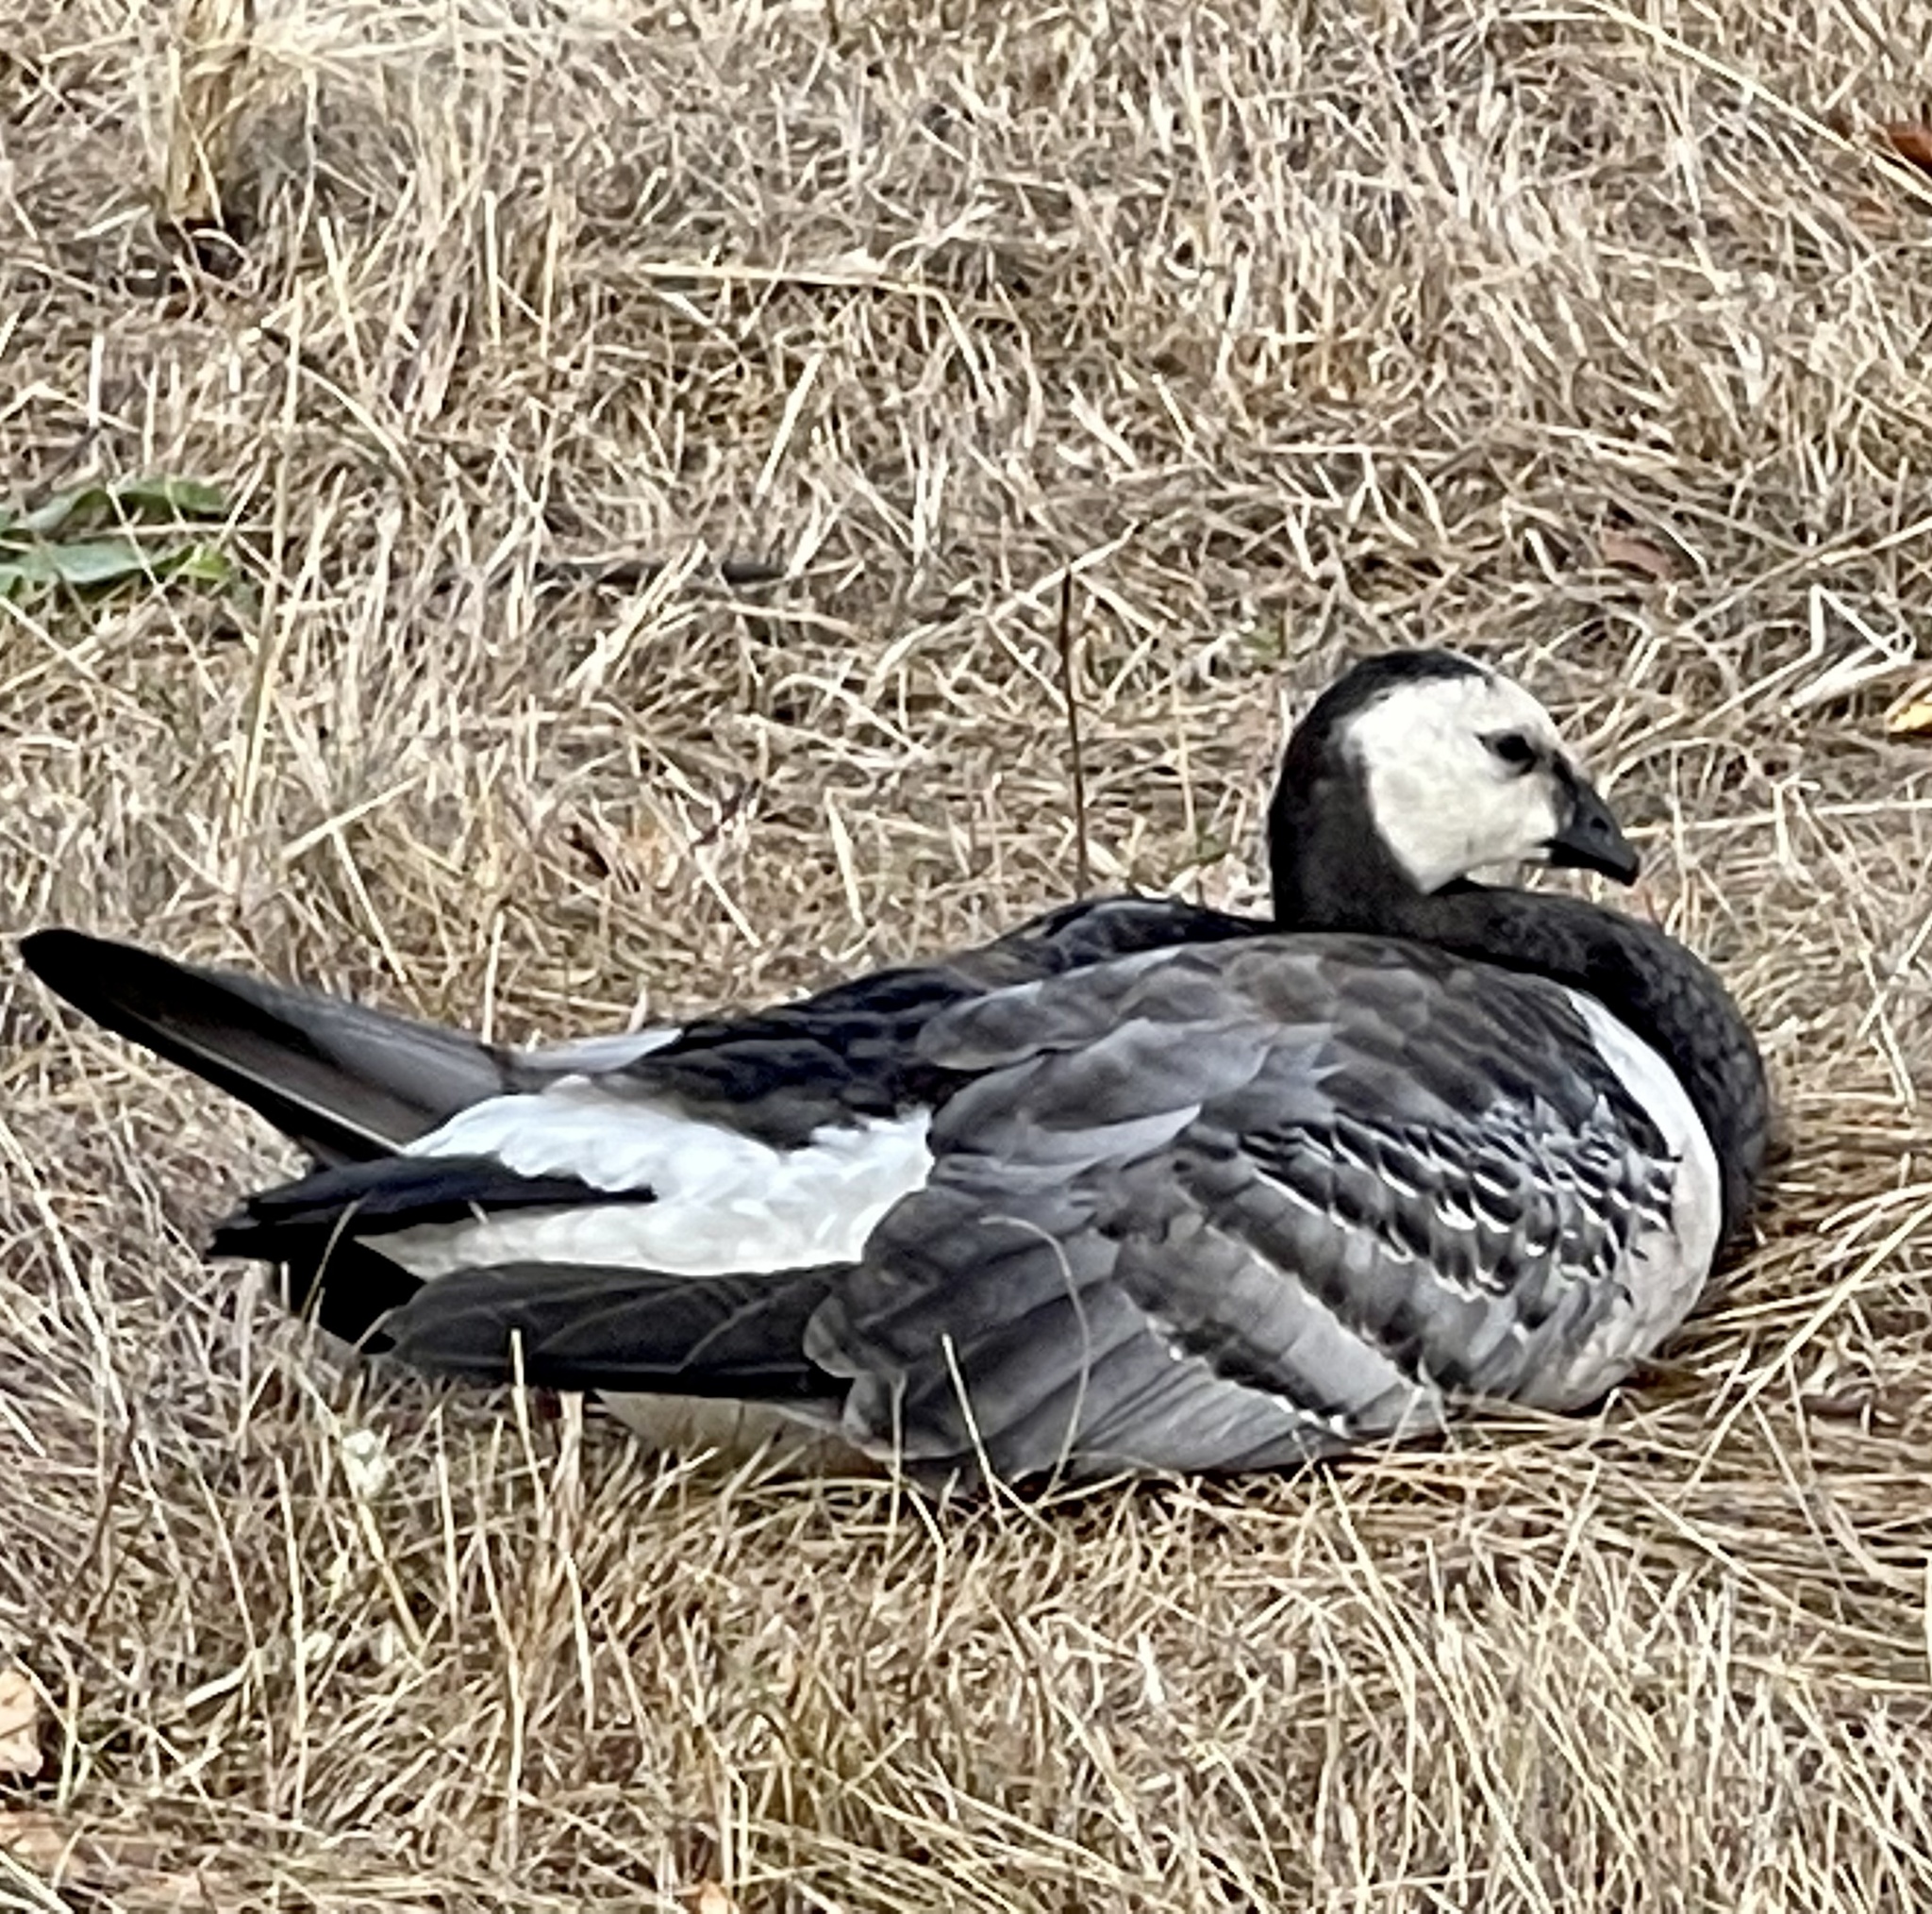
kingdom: Animalia
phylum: Chordata
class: Aves
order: Anseriformes
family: Anatidae
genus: Branta
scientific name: Branta leucopsis
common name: Barnacle goose
